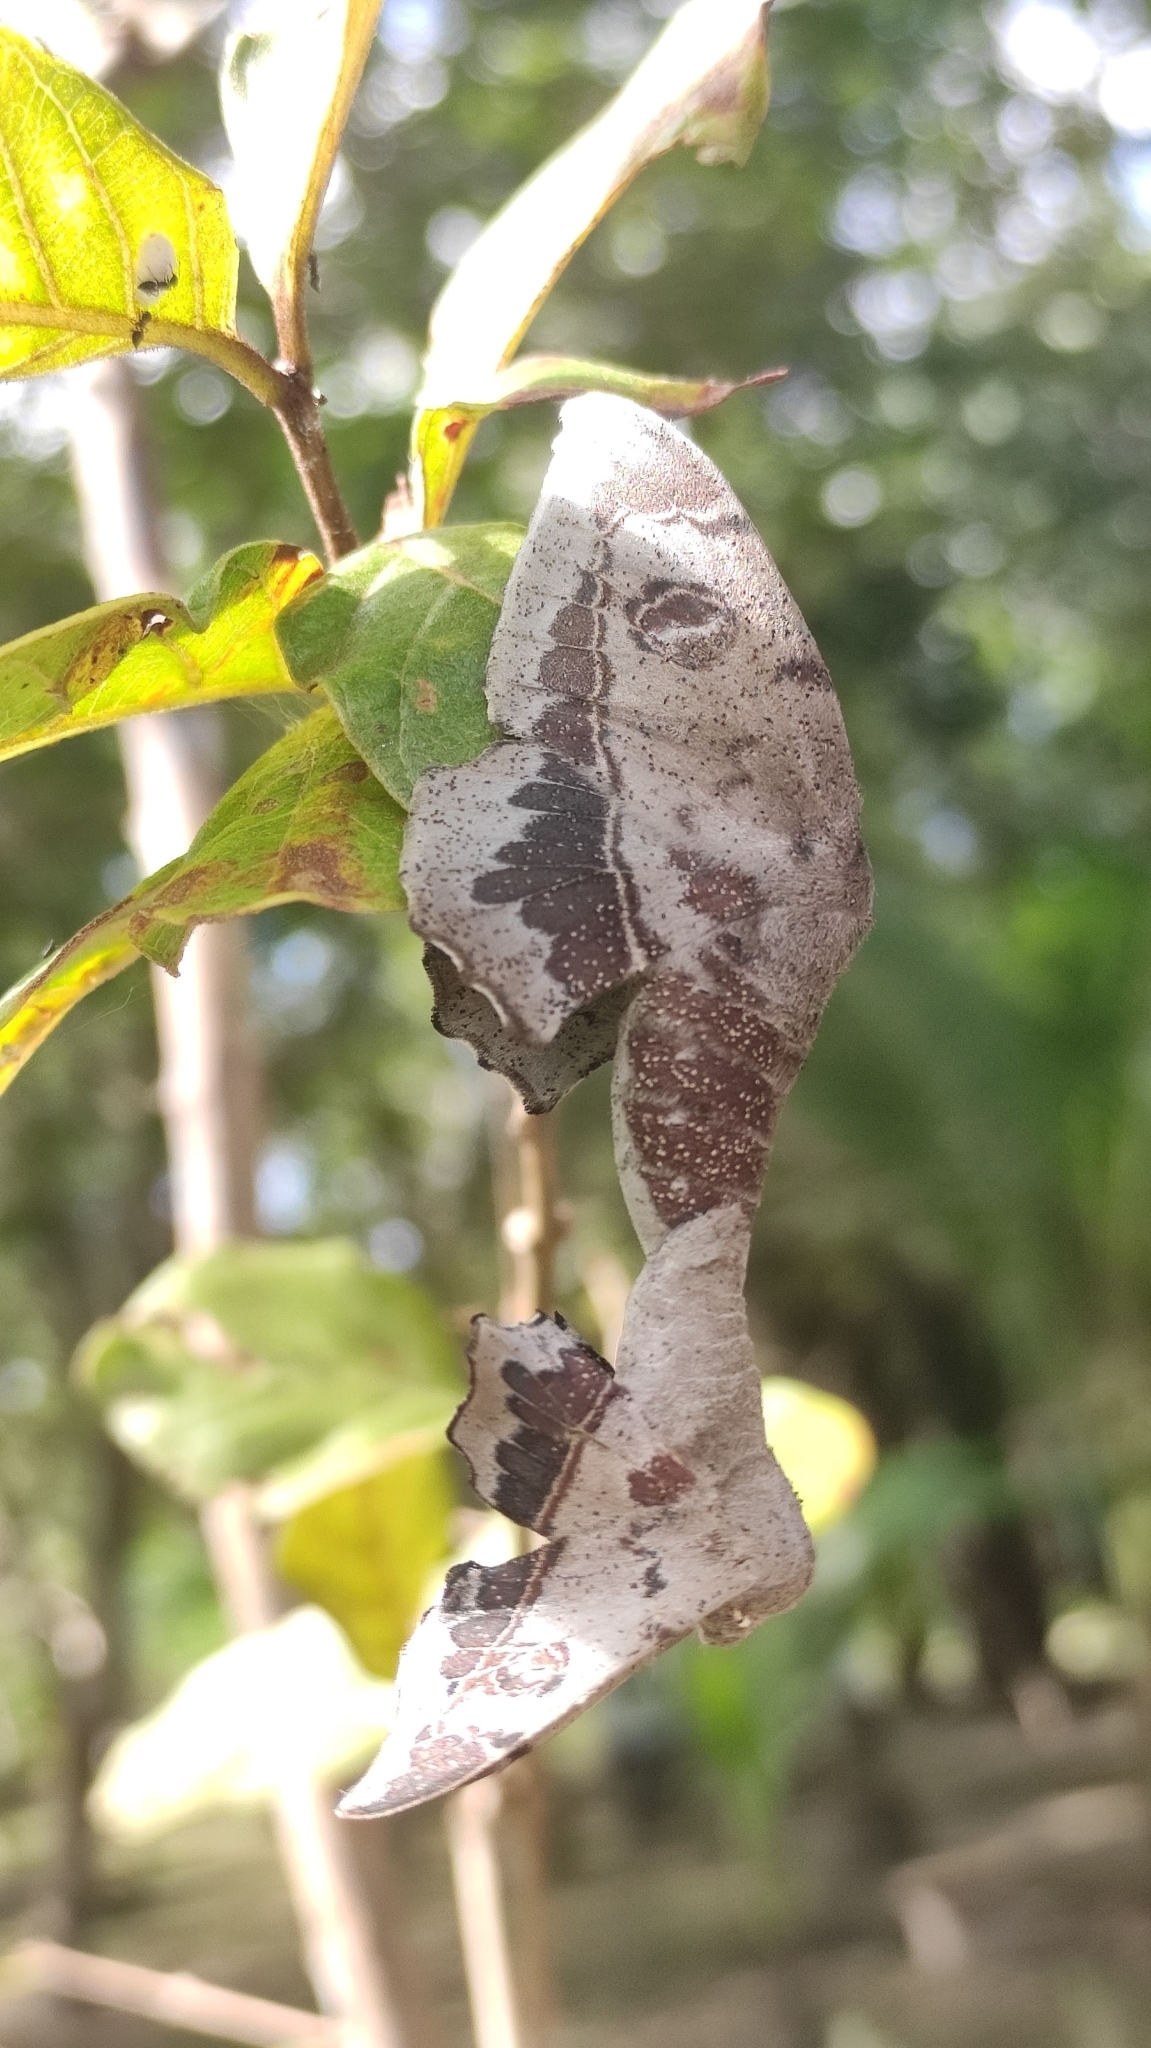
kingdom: Animalia
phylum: Arthropoda
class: Insecta
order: Lepidoptera
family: Mimallonidae
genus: Mimallo
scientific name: Mimallo amilia
